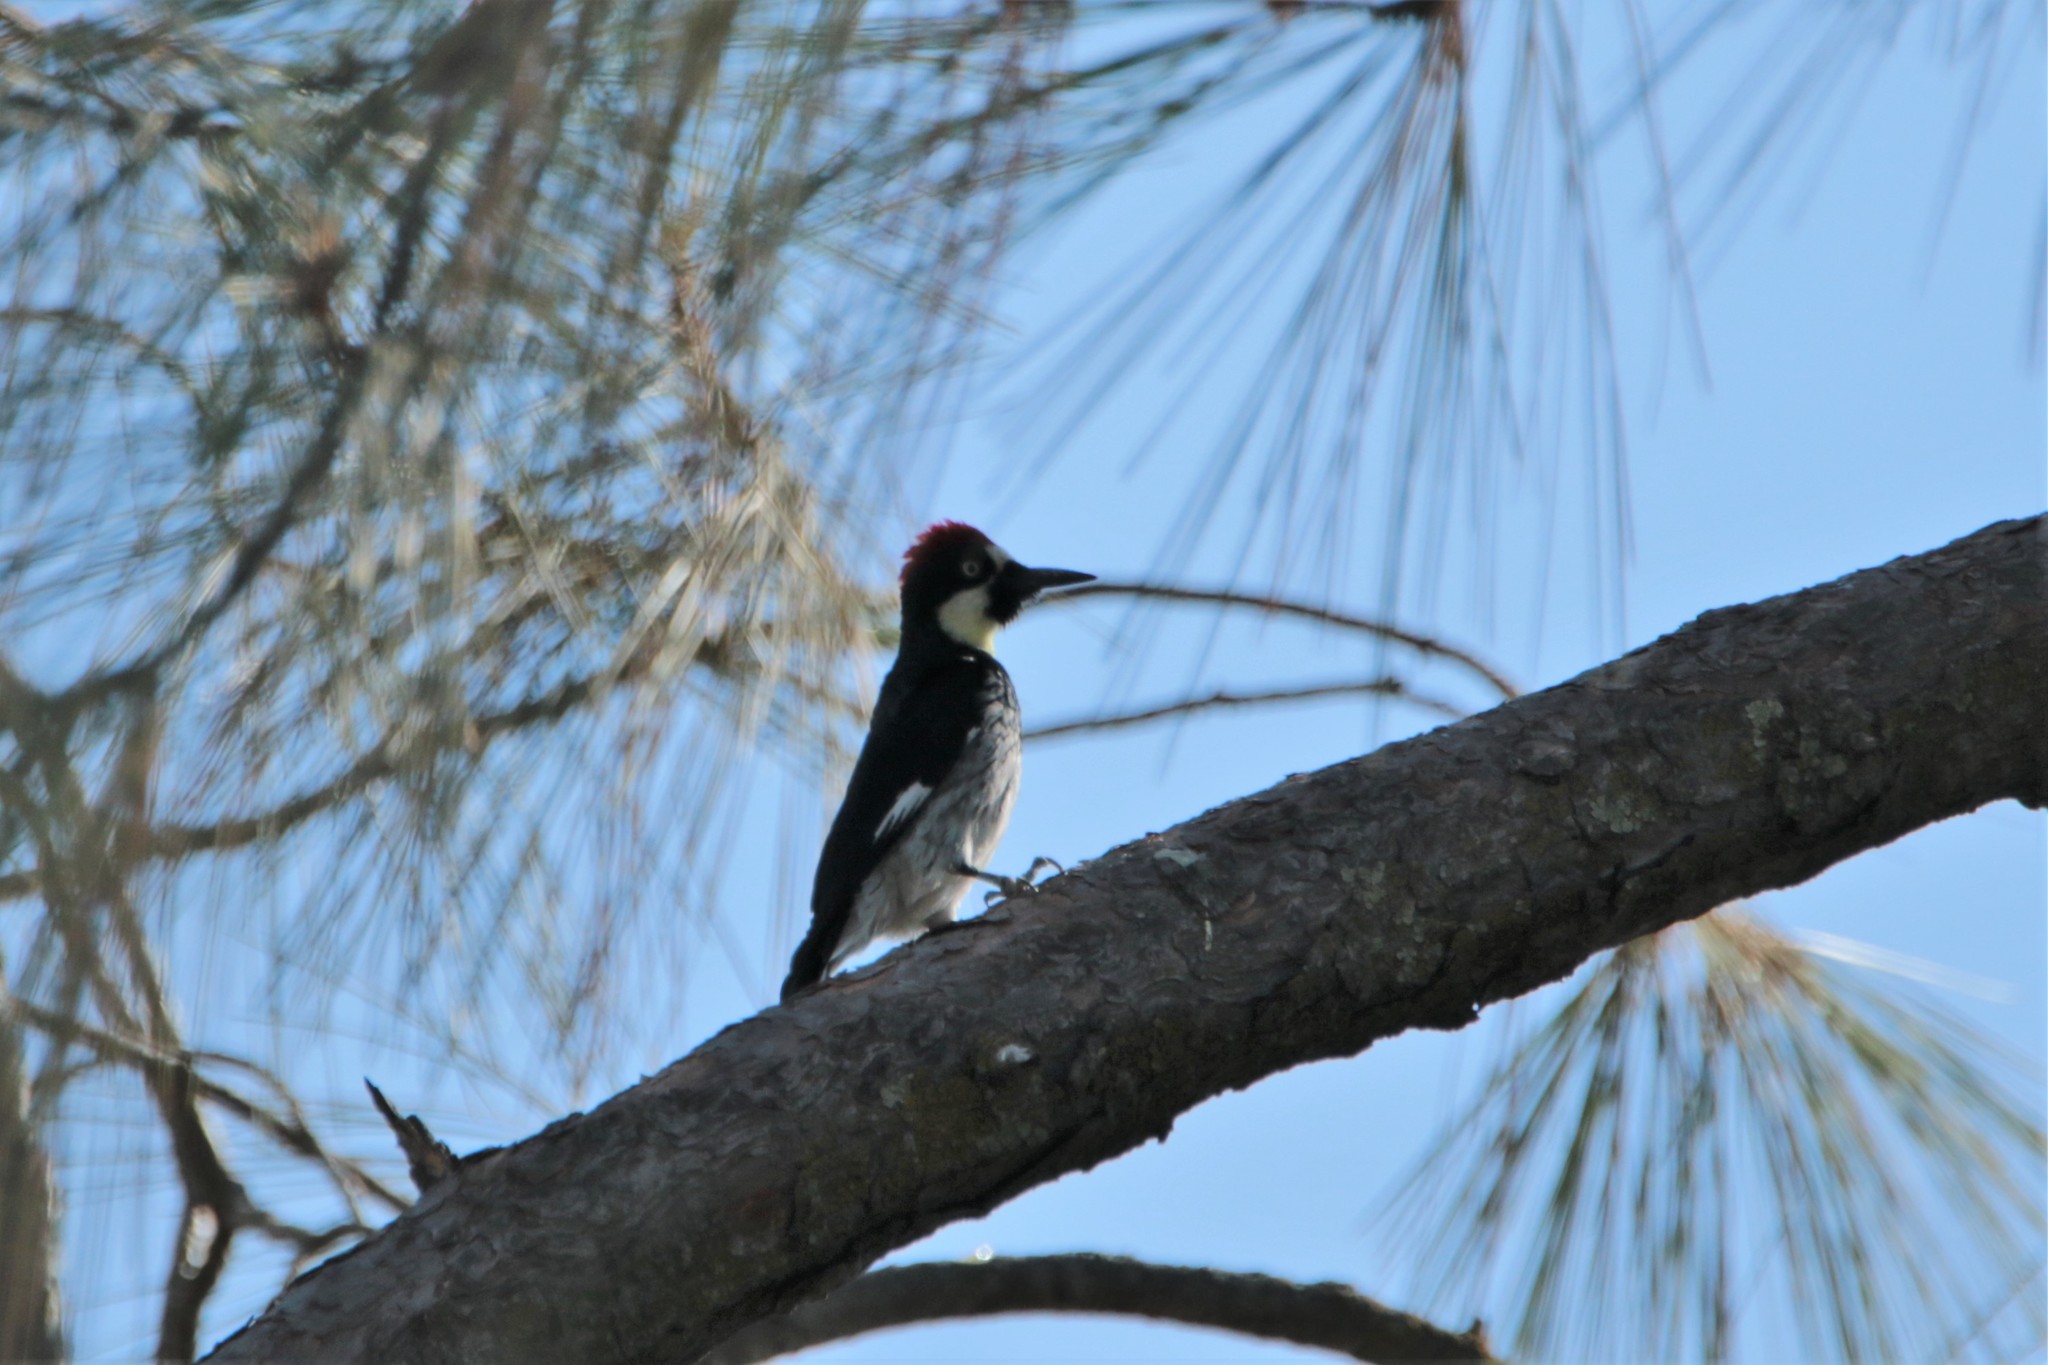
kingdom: Animalia
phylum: Chordata
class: Aves
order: Piciformes
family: Picidae
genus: Melanerpes
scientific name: Melanerpes formicivorus
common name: Acorn woodpecker
